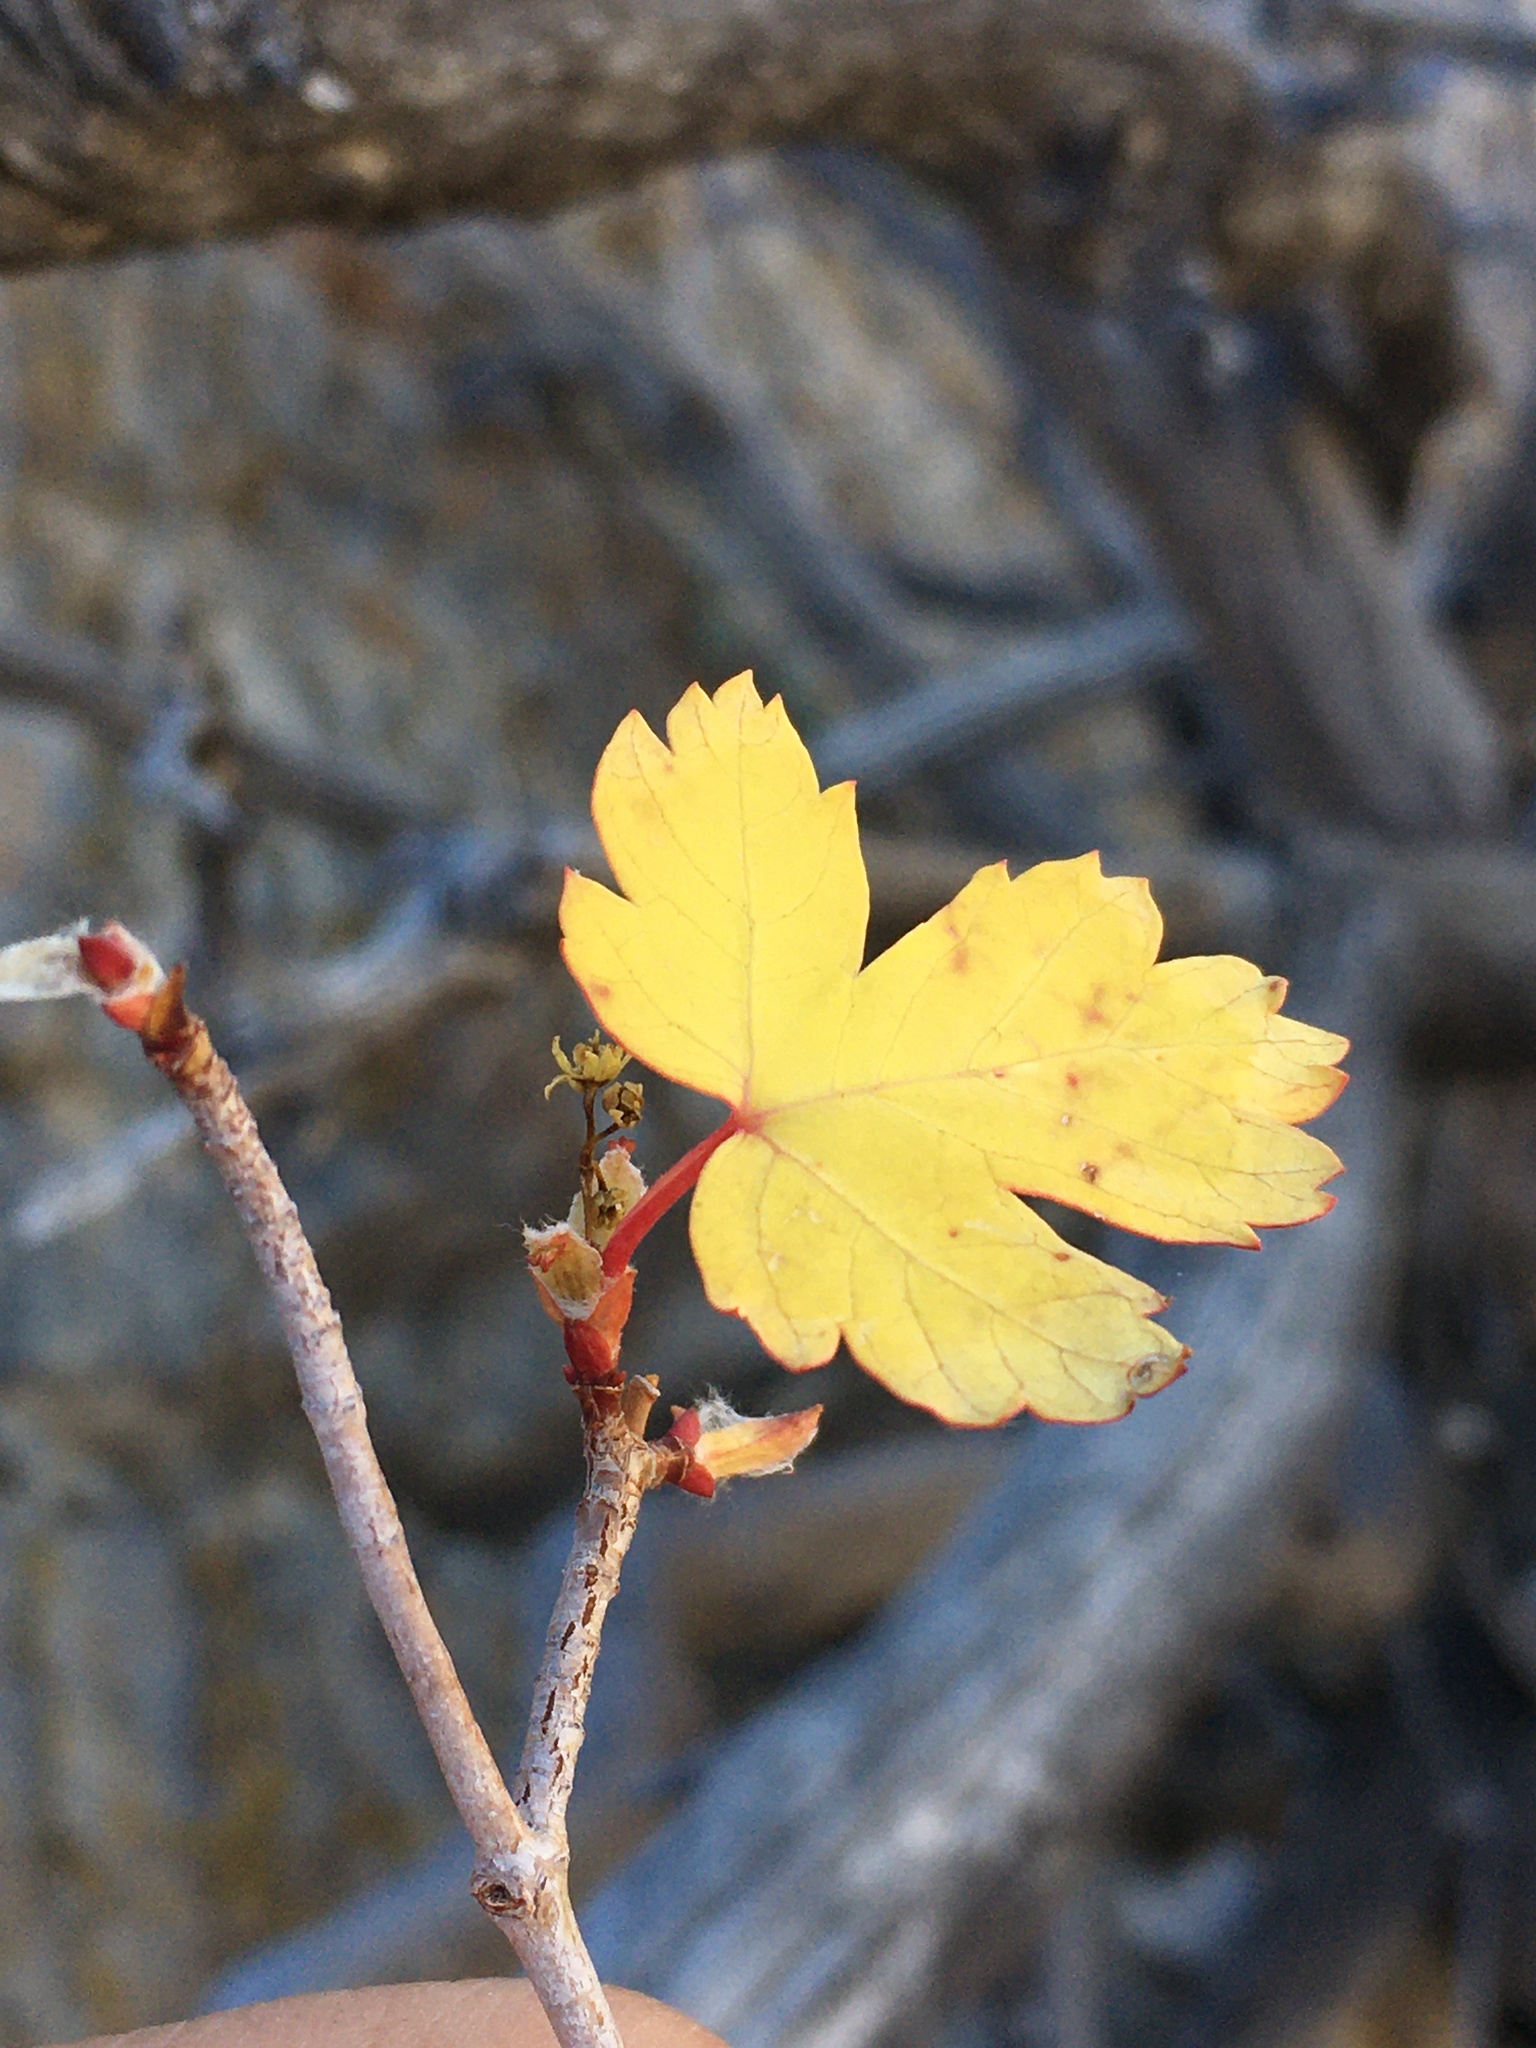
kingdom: Plantae
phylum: Tracheophyta
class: Magnoliopsida
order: Sapindales
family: Sapindaceae
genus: Acer
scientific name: Acer glabrum
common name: Rocky mountain maple
